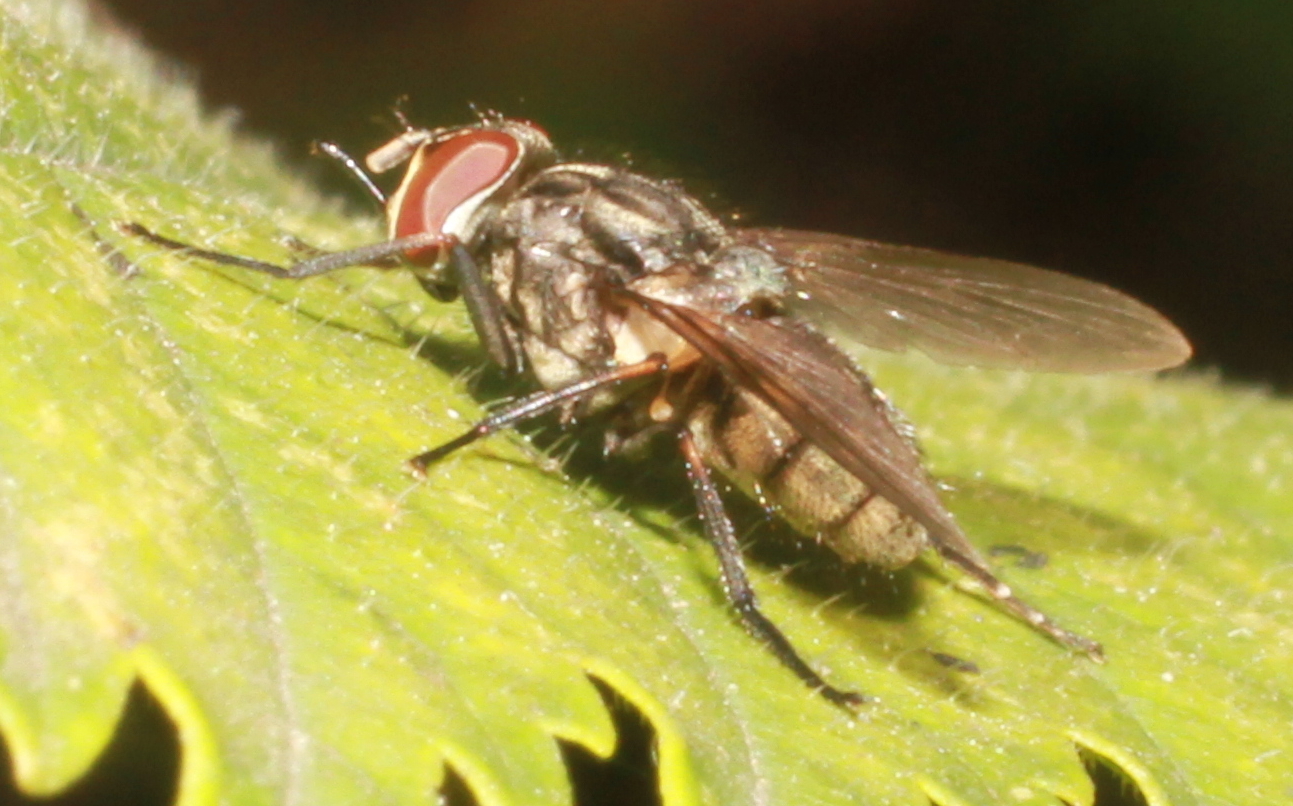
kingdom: Animalia
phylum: Arthropoda
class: Insecta
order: Diptera
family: Muscidae
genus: Stomoxys
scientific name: Stomoxys calcitrans
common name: Stable fly
